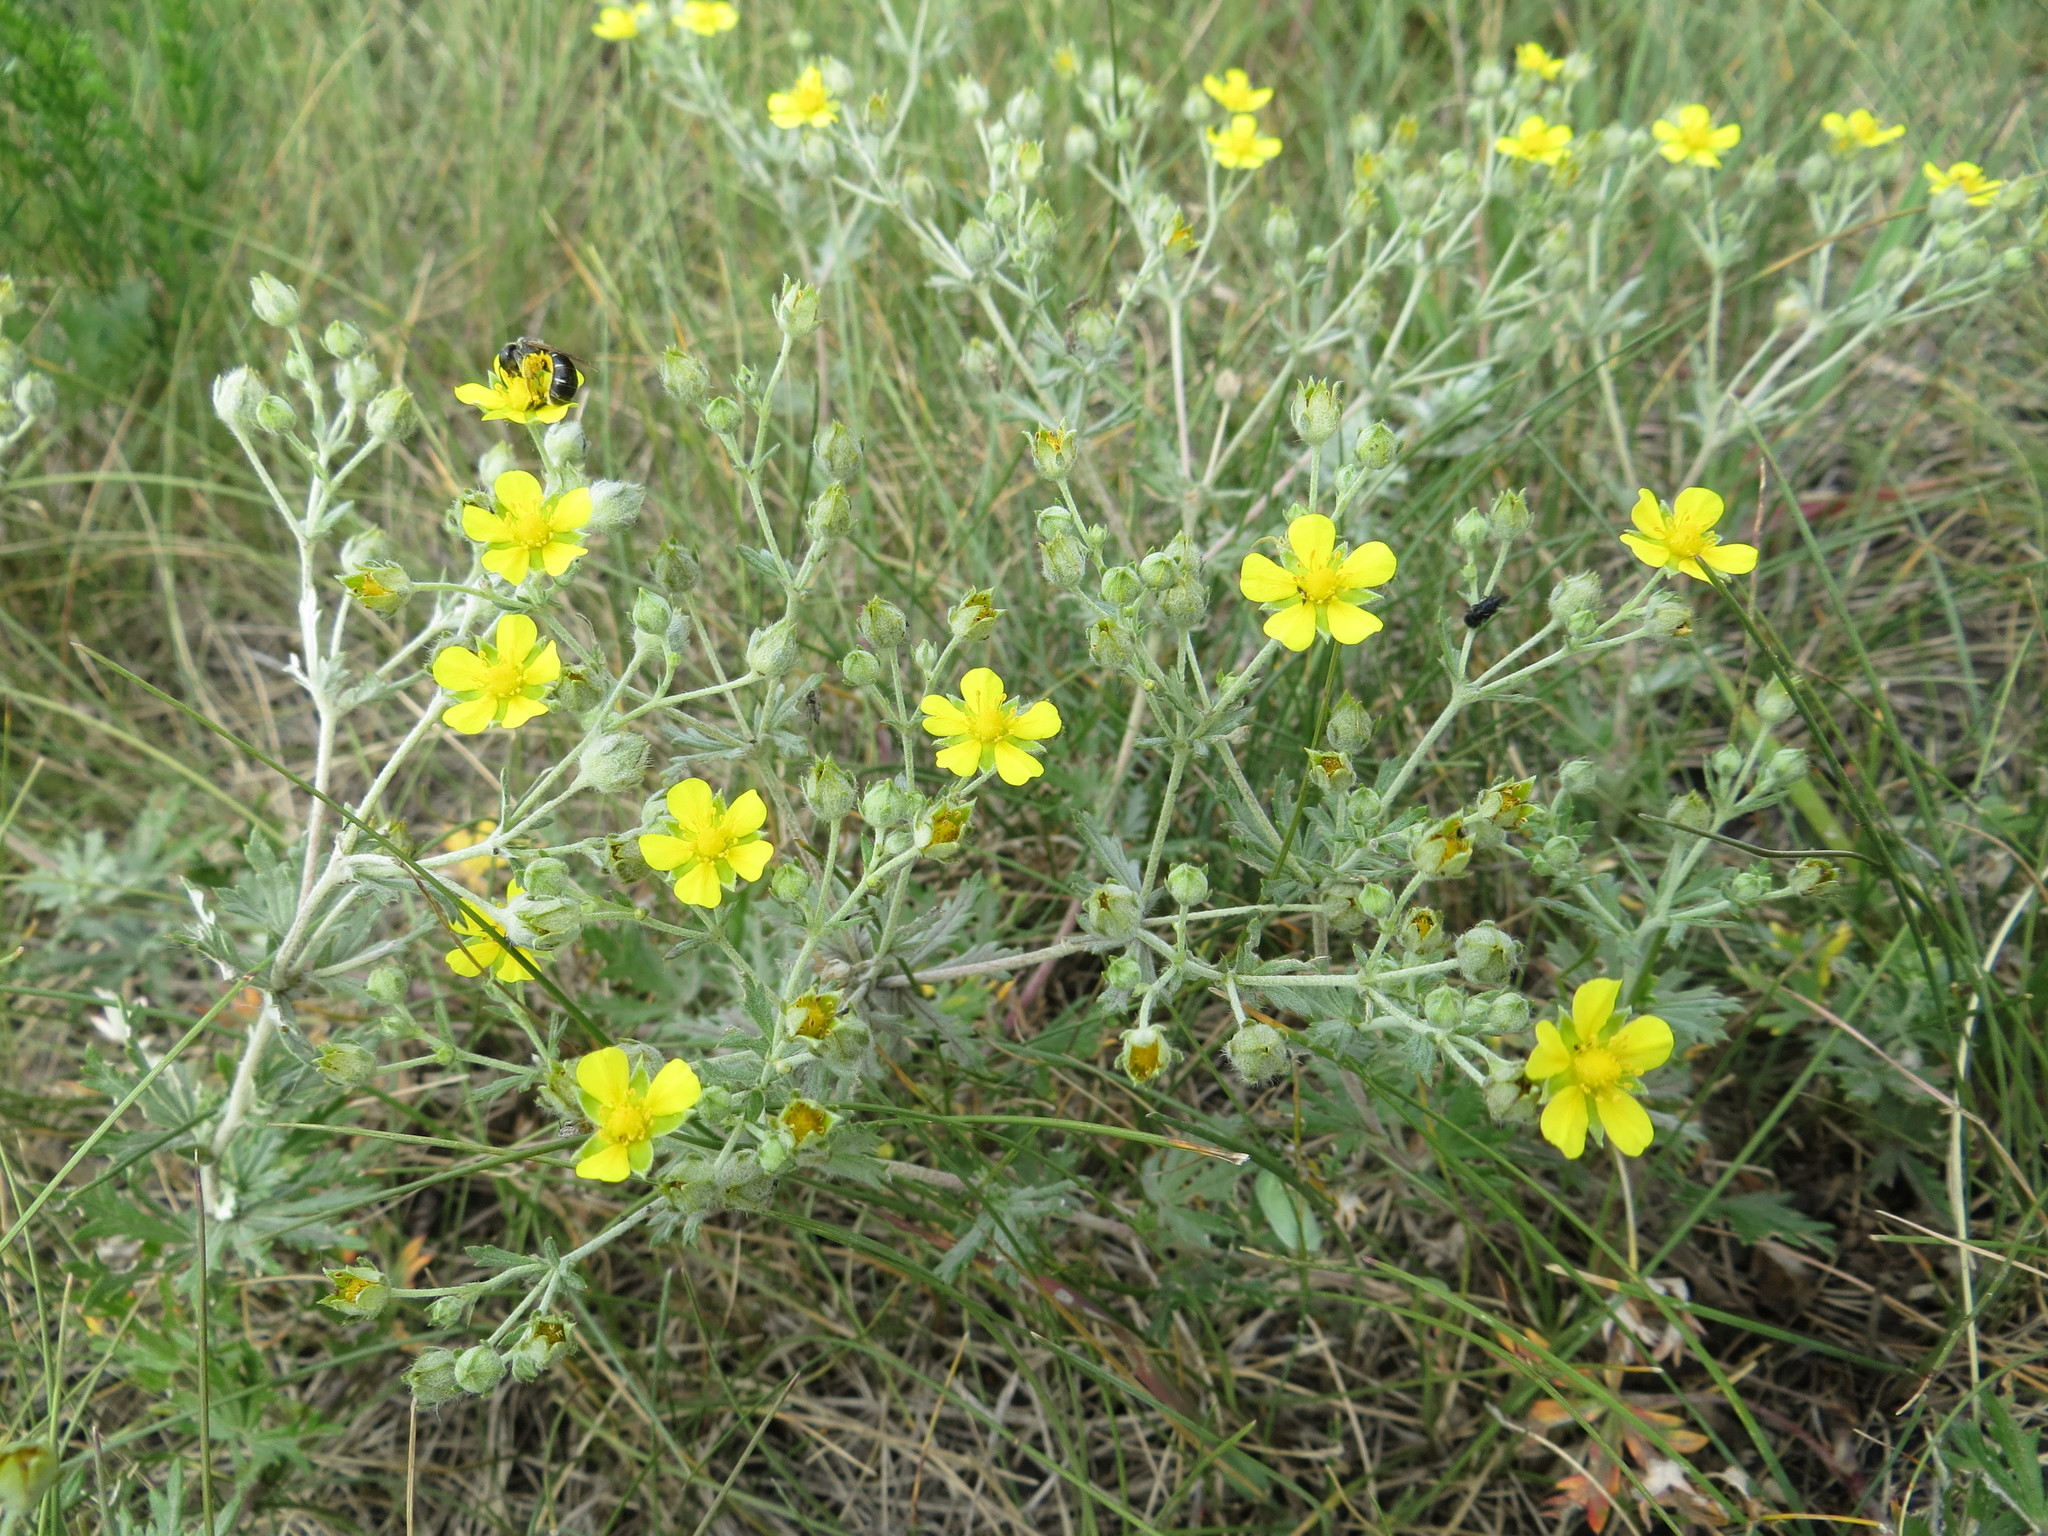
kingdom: Plantae
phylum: Tracheophyta
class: Magnoliopsida
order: Rosales
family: Rosaceae
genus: Potentilla
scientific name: Potentilla argentea
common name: Hoary cinquefoil
